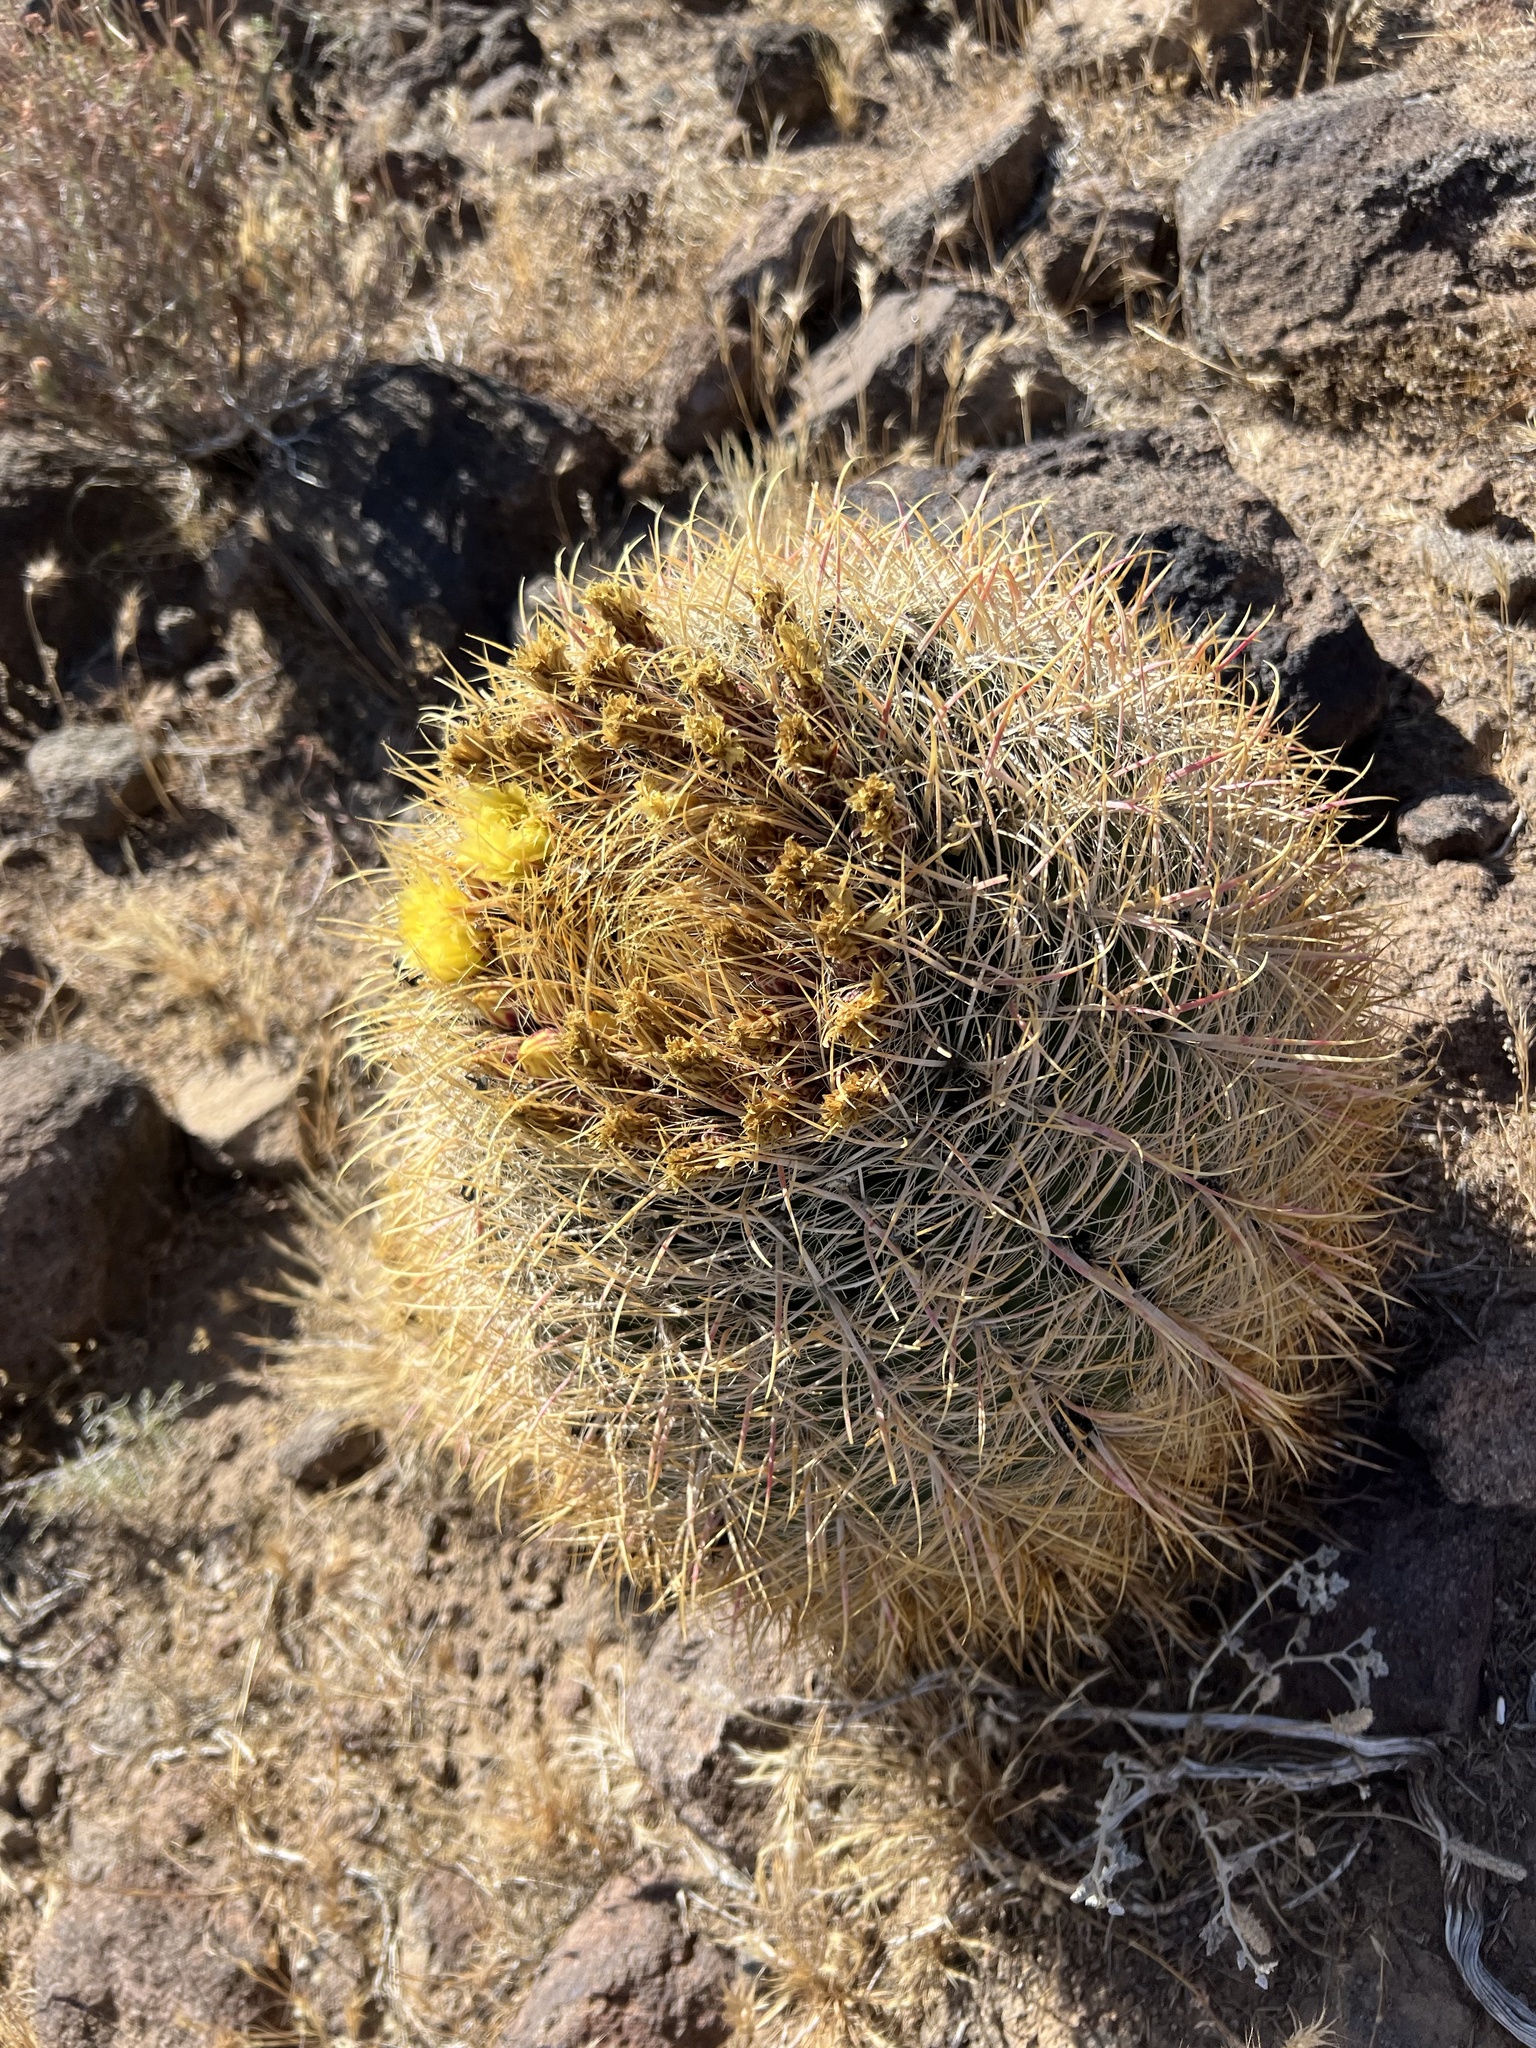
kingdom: Plantae
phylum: Tracheophyta
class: Magnoliopsida
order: Caryophyllales
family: Cactaceae
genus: Ferocactus
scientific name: Ferocactus cylindraceus
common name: California barrel cactus
